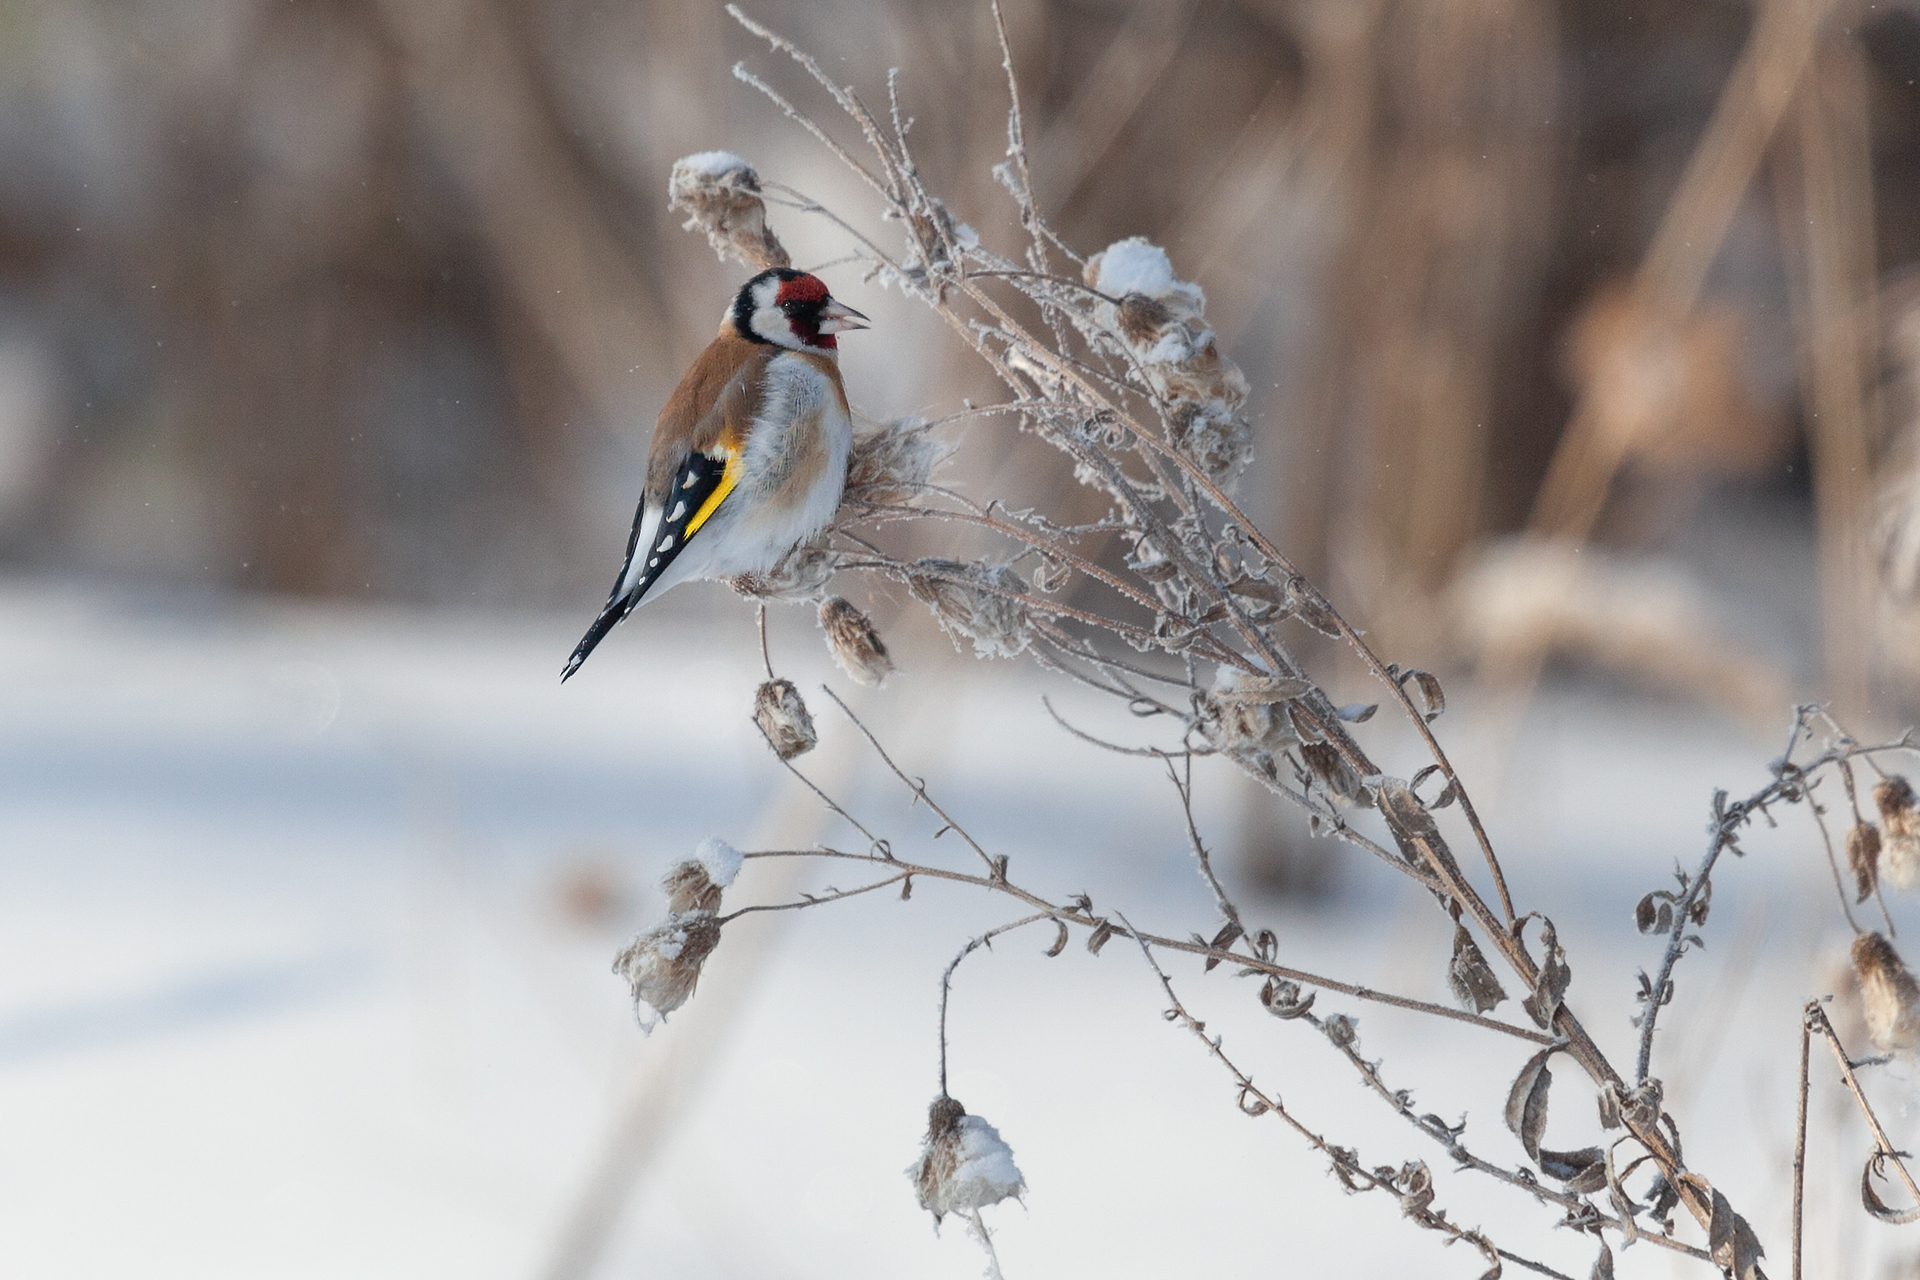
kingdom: Animalia
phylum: Chordata
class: Aves
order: Passeriformes
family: Fringillidae
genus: Carduelis
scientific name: Carduelis carduelis
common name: European goldfinch
